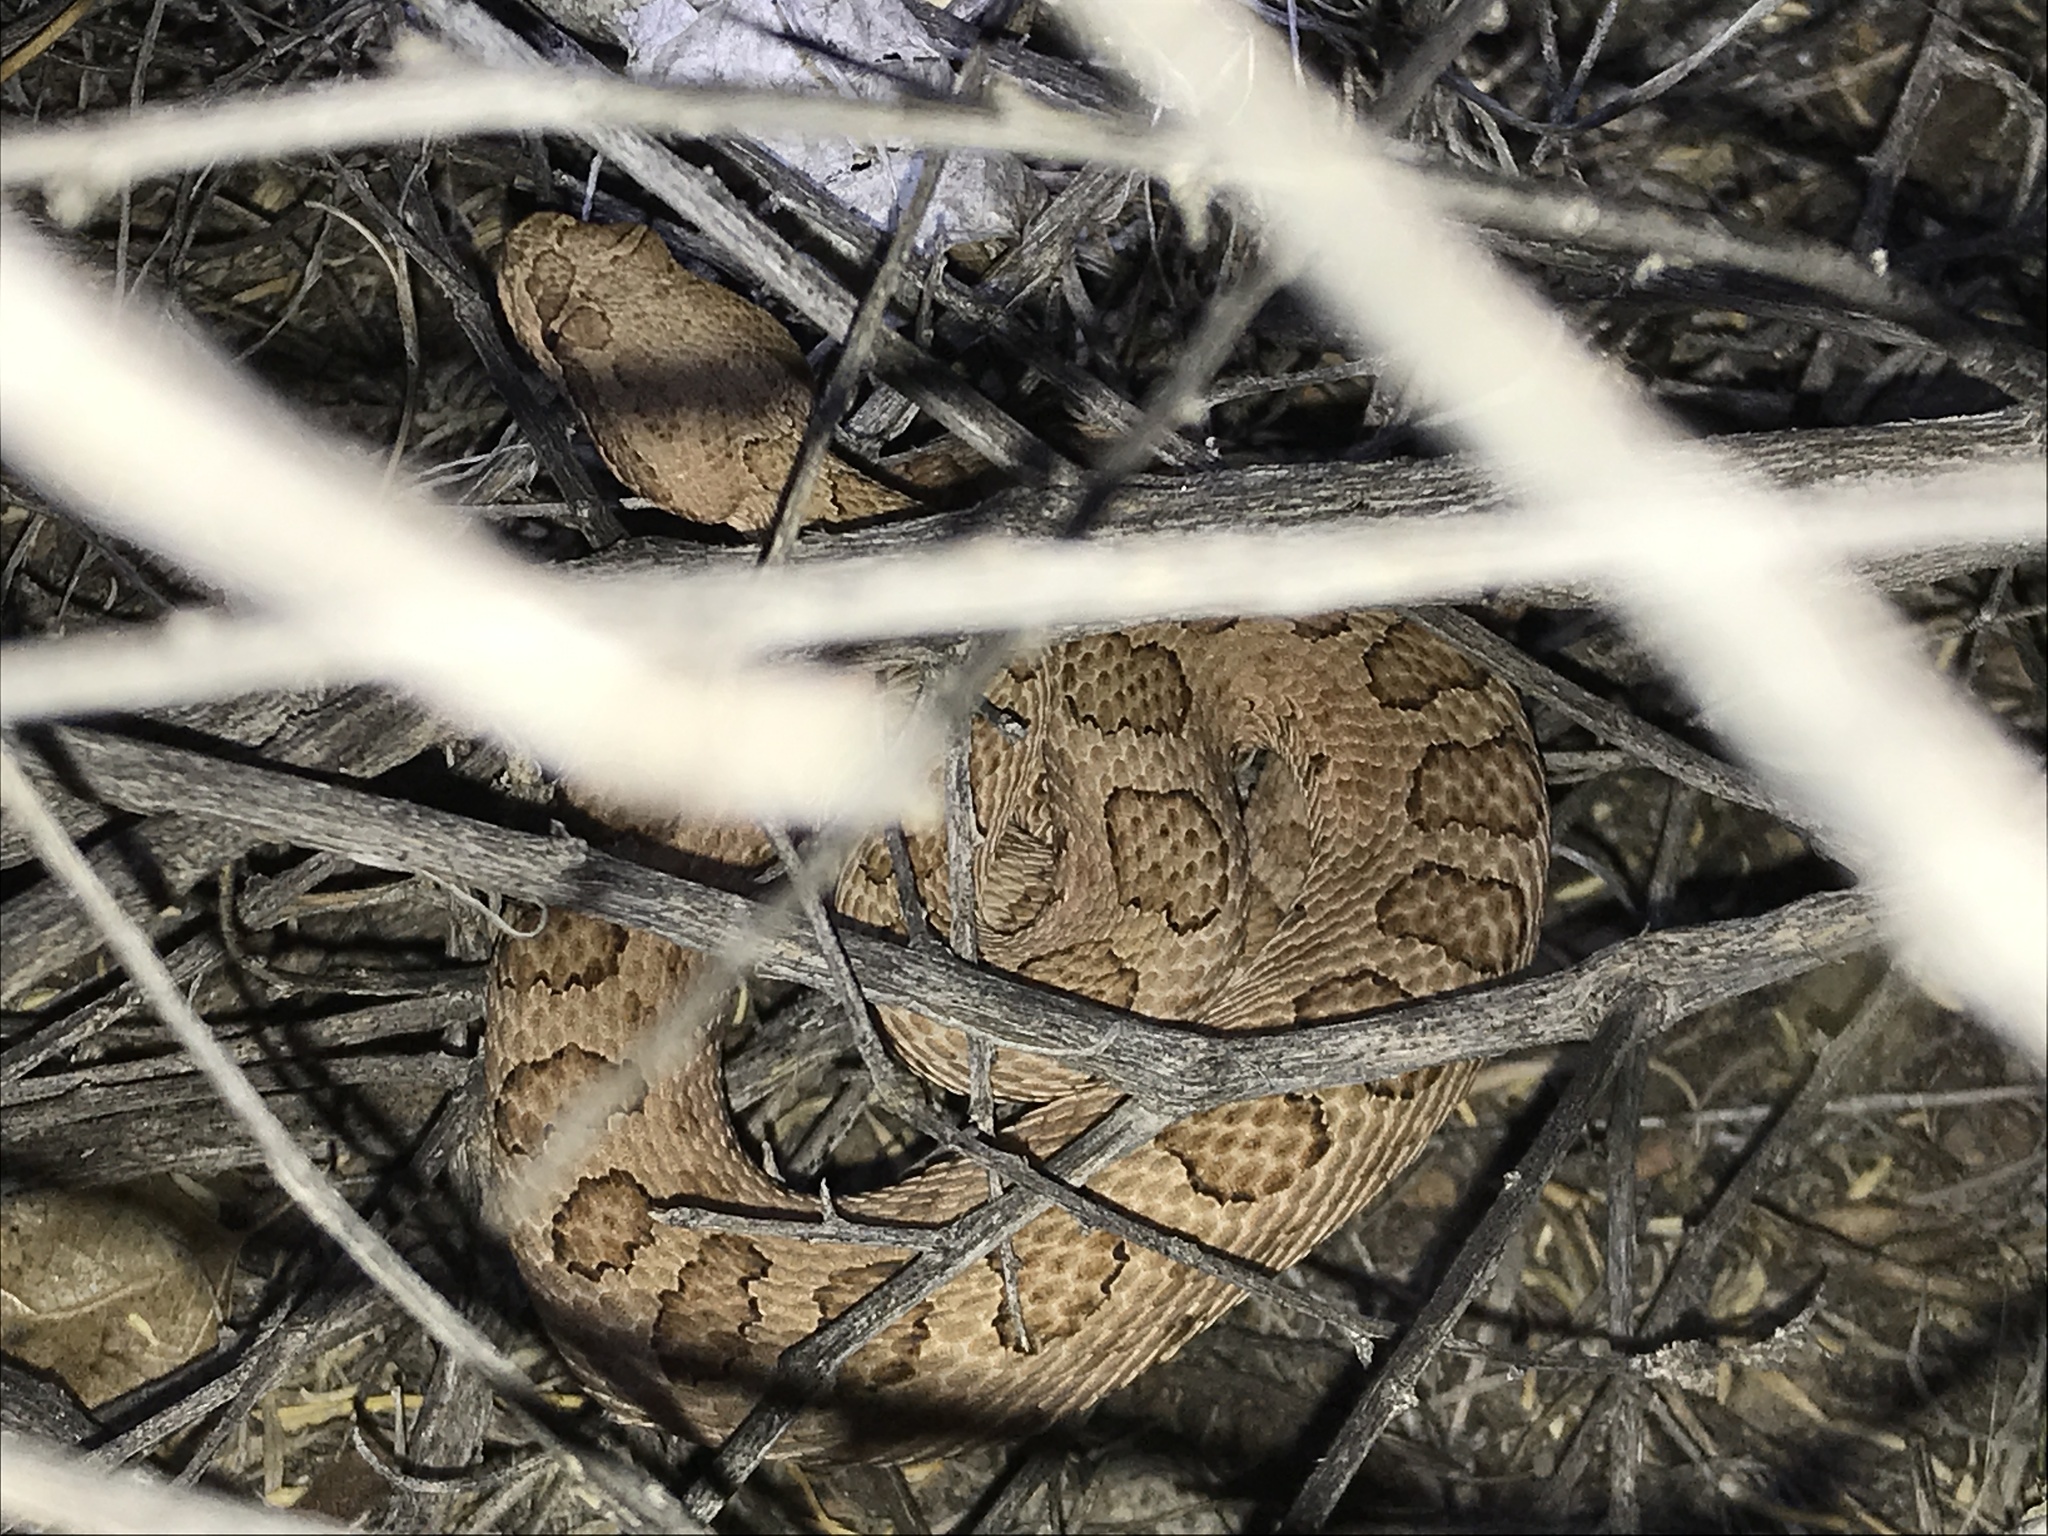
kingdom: Animalia
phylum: Chordata
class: Squamata
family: Viperidae
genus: Crotalus
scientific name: Crotalus oreganus
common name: Abyssus
